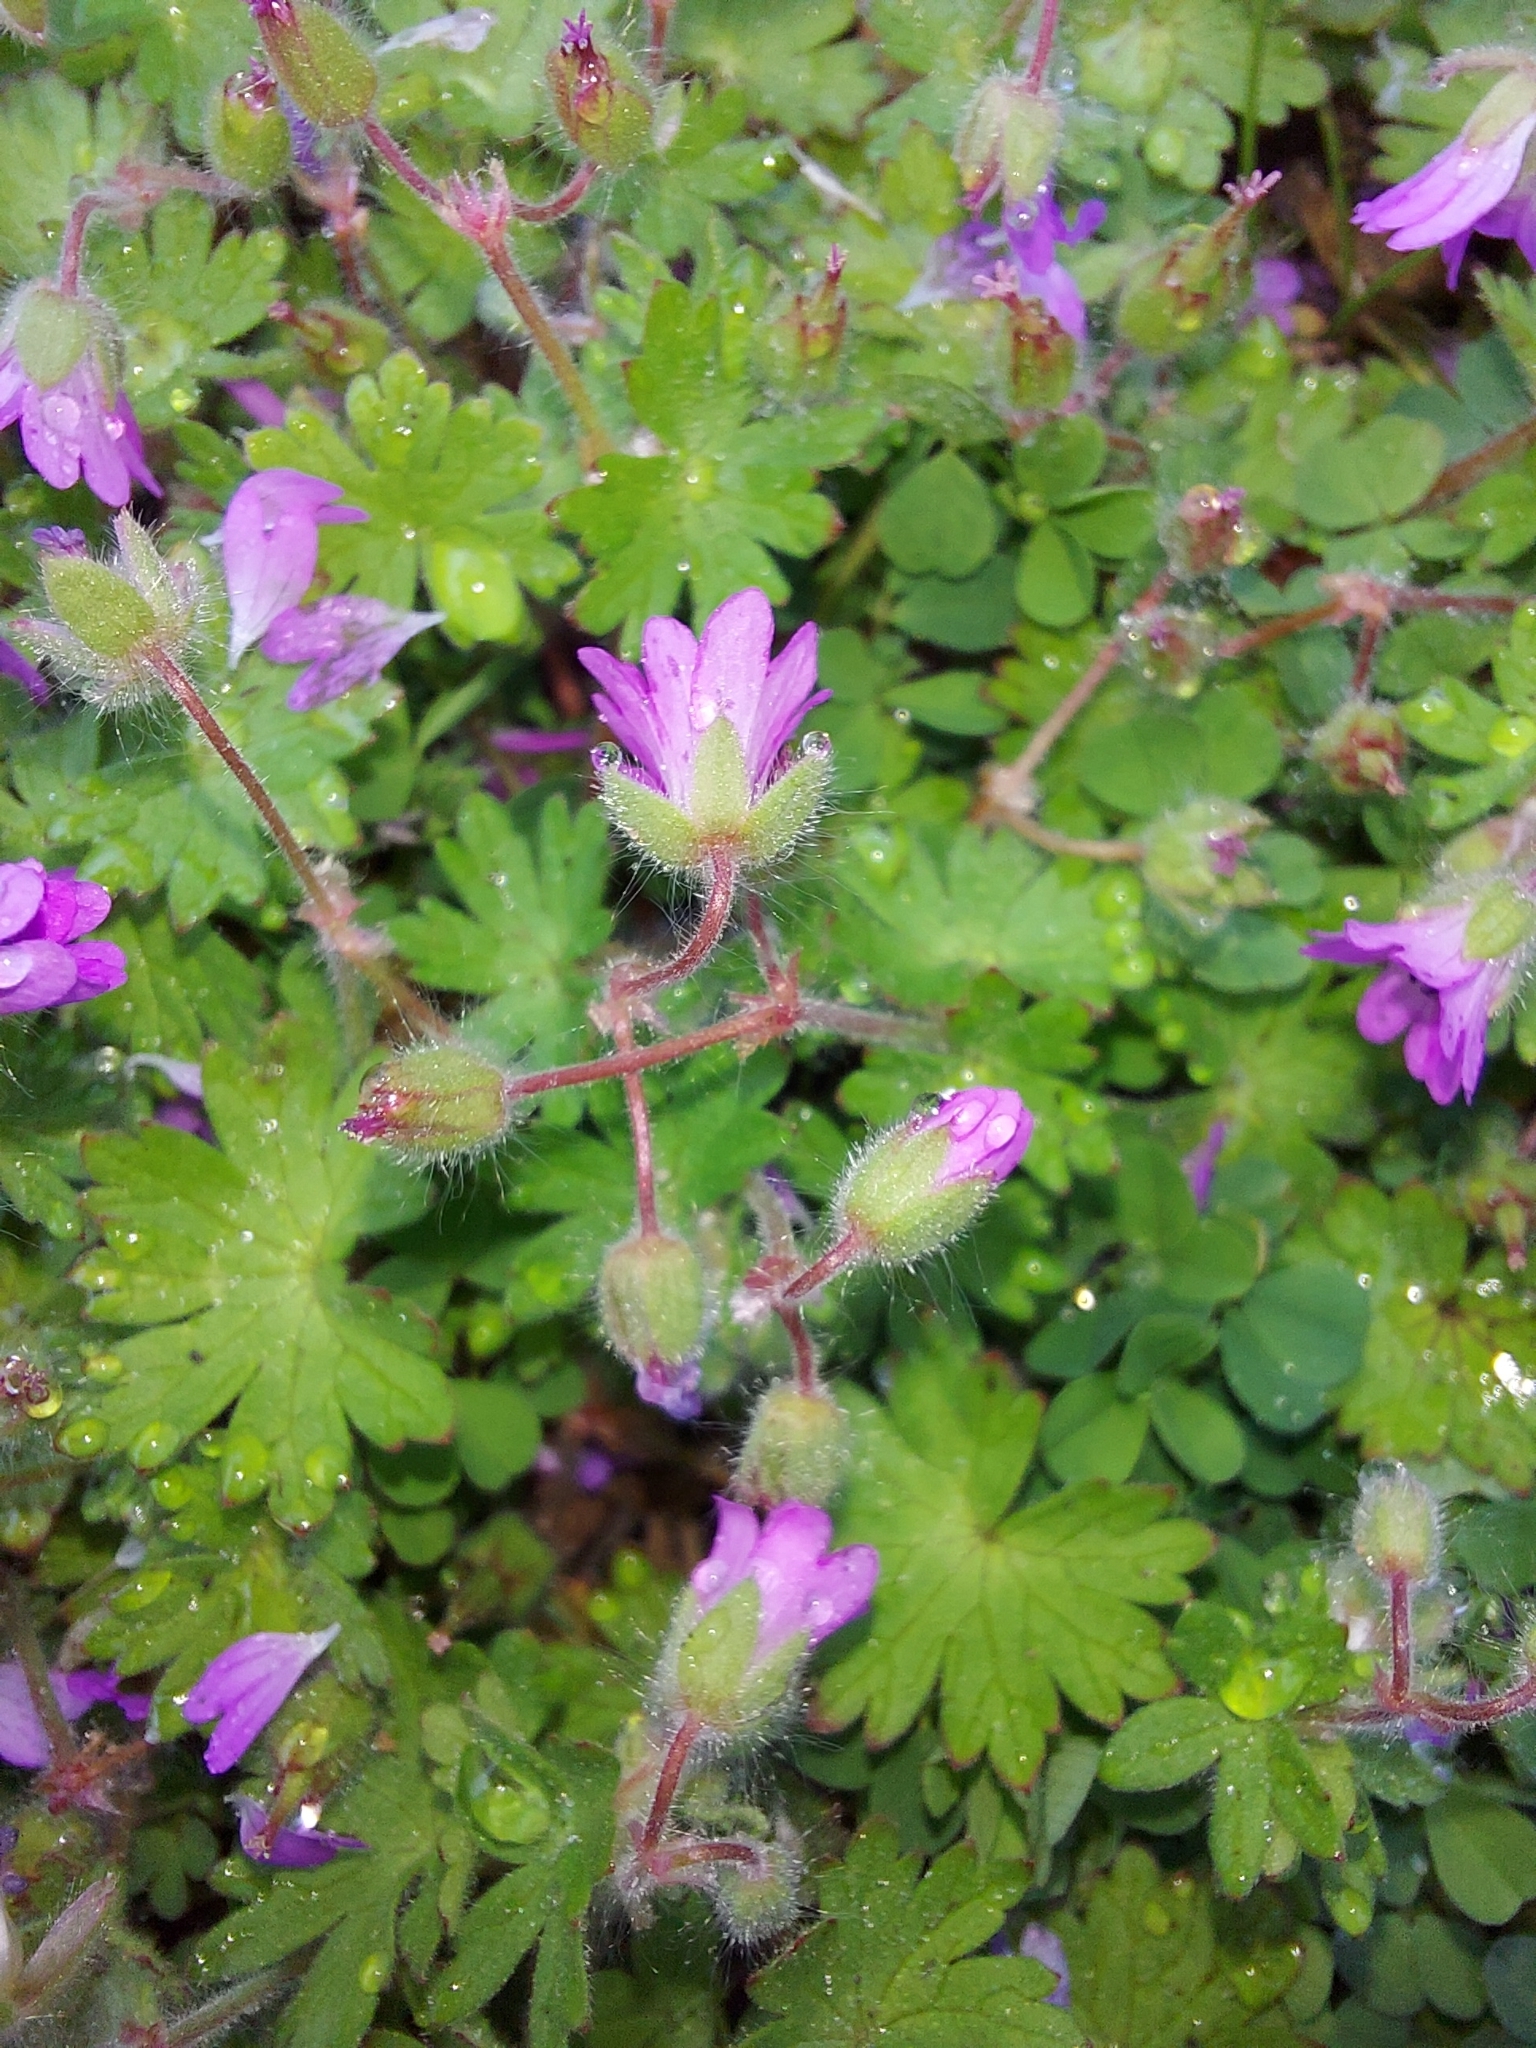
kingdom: Plantae
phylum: Tracheophyta
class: Magnoliopsida
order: Geraniales
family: Geraniaceae
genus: Geranium
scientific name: Geranium molle
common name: Dove's-foot crane's-bill
